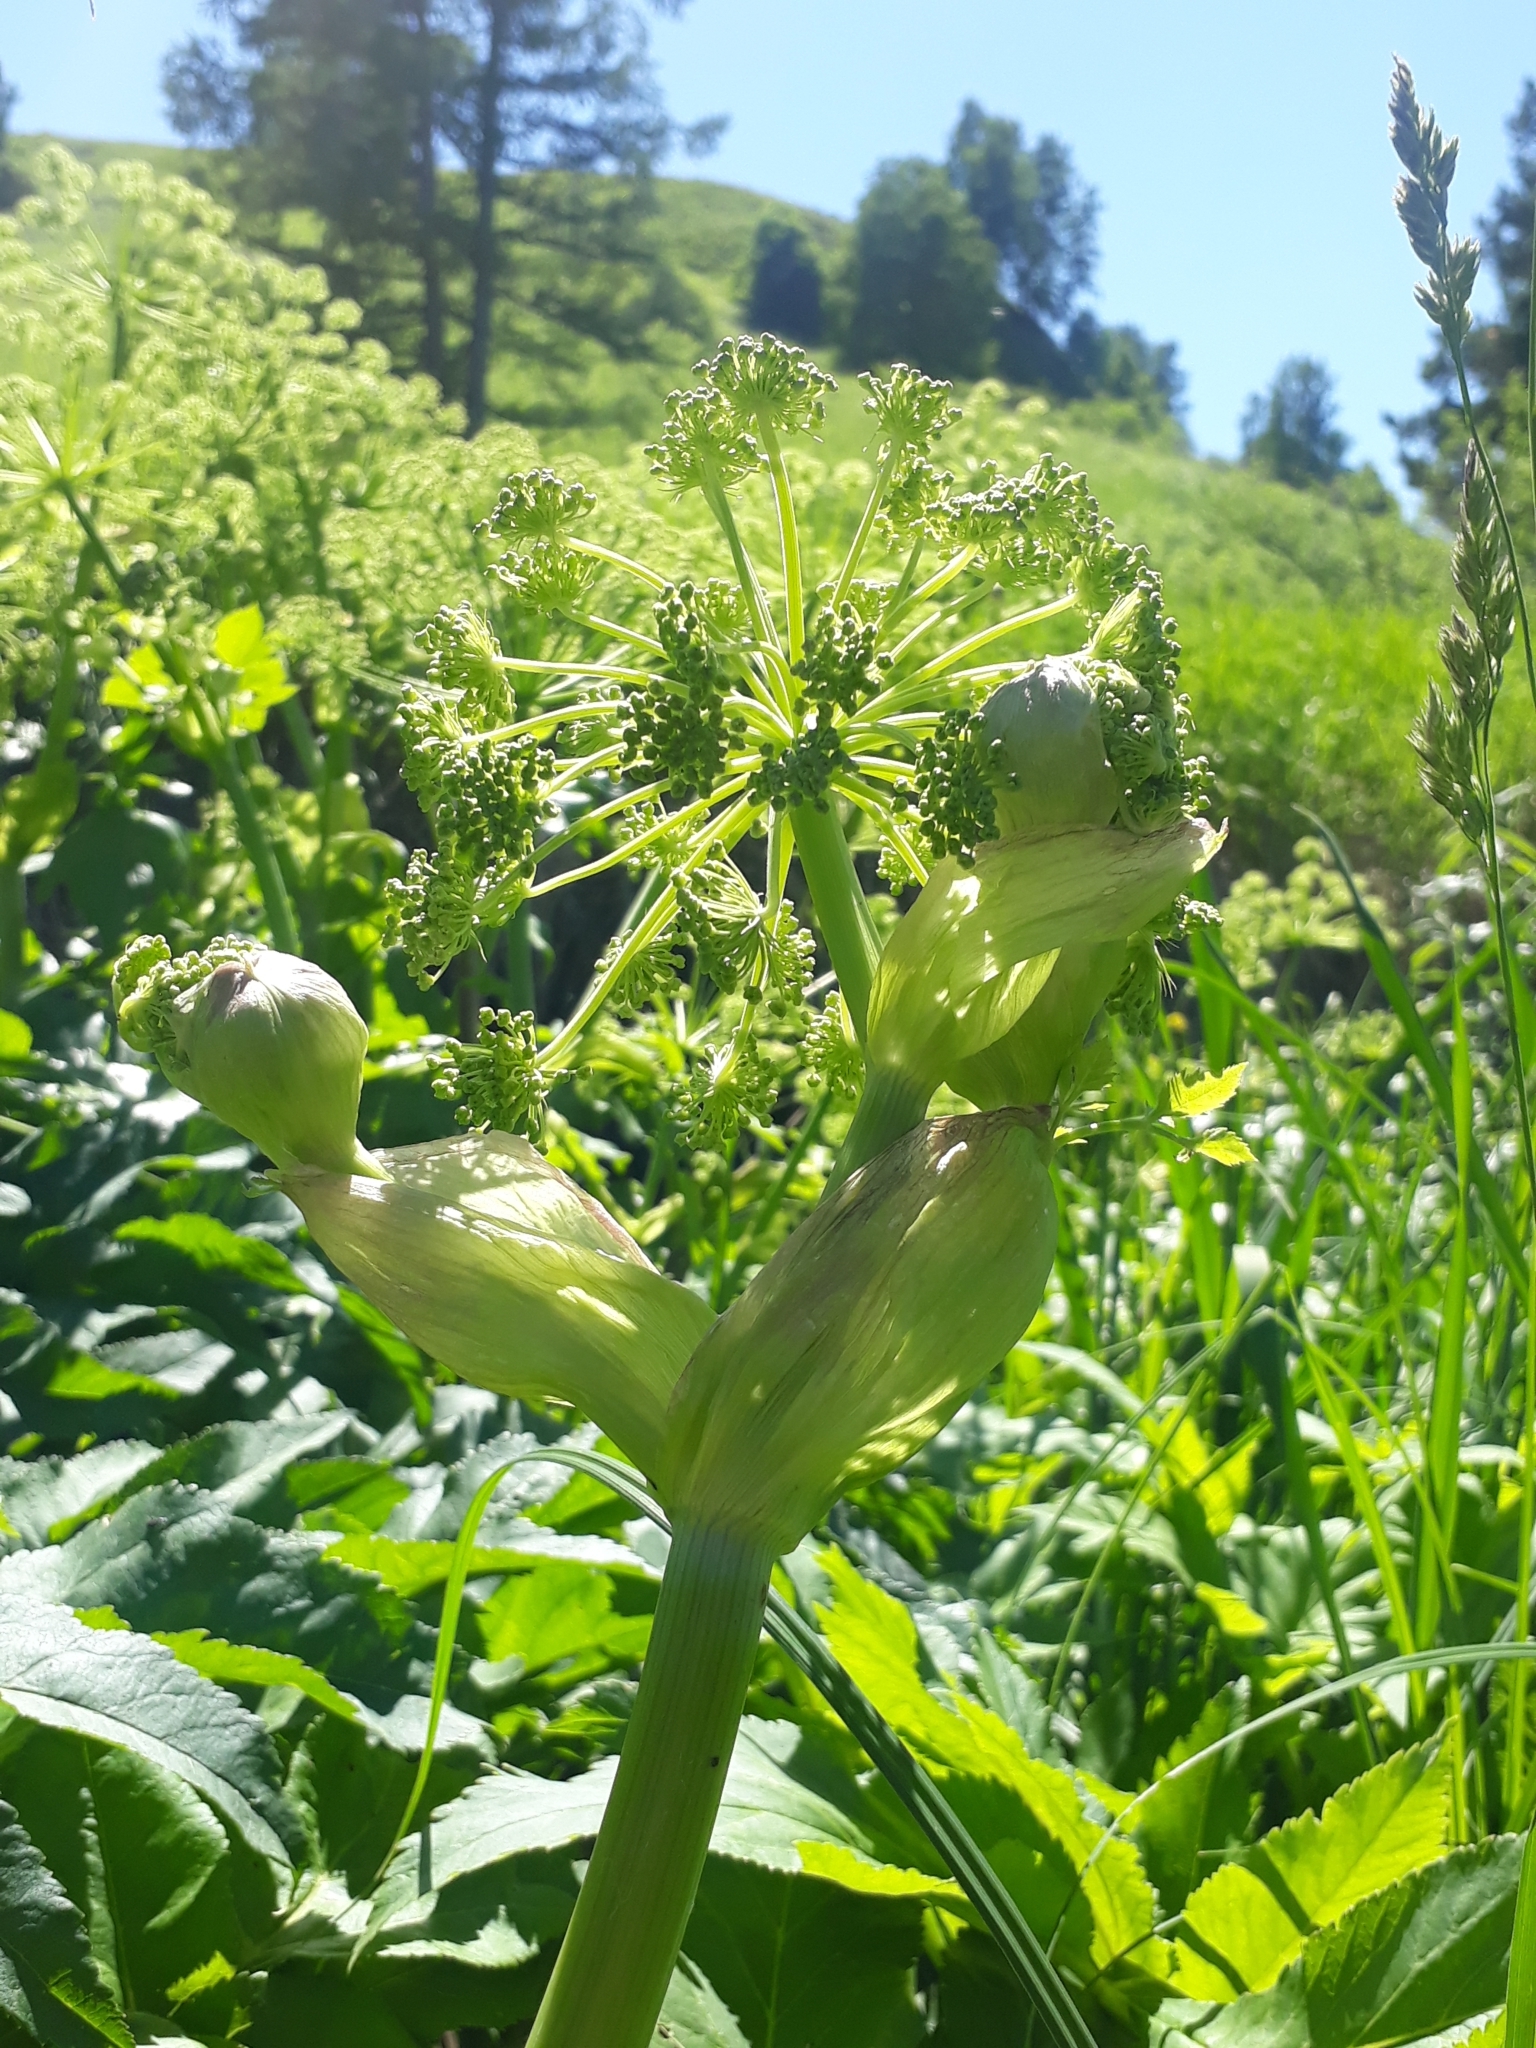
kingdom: Plantae
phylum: Tracheophyta
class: Magnoliopsida
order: Apiales
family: Apiaceae
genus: Angelica
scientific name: Angelica decurrens
